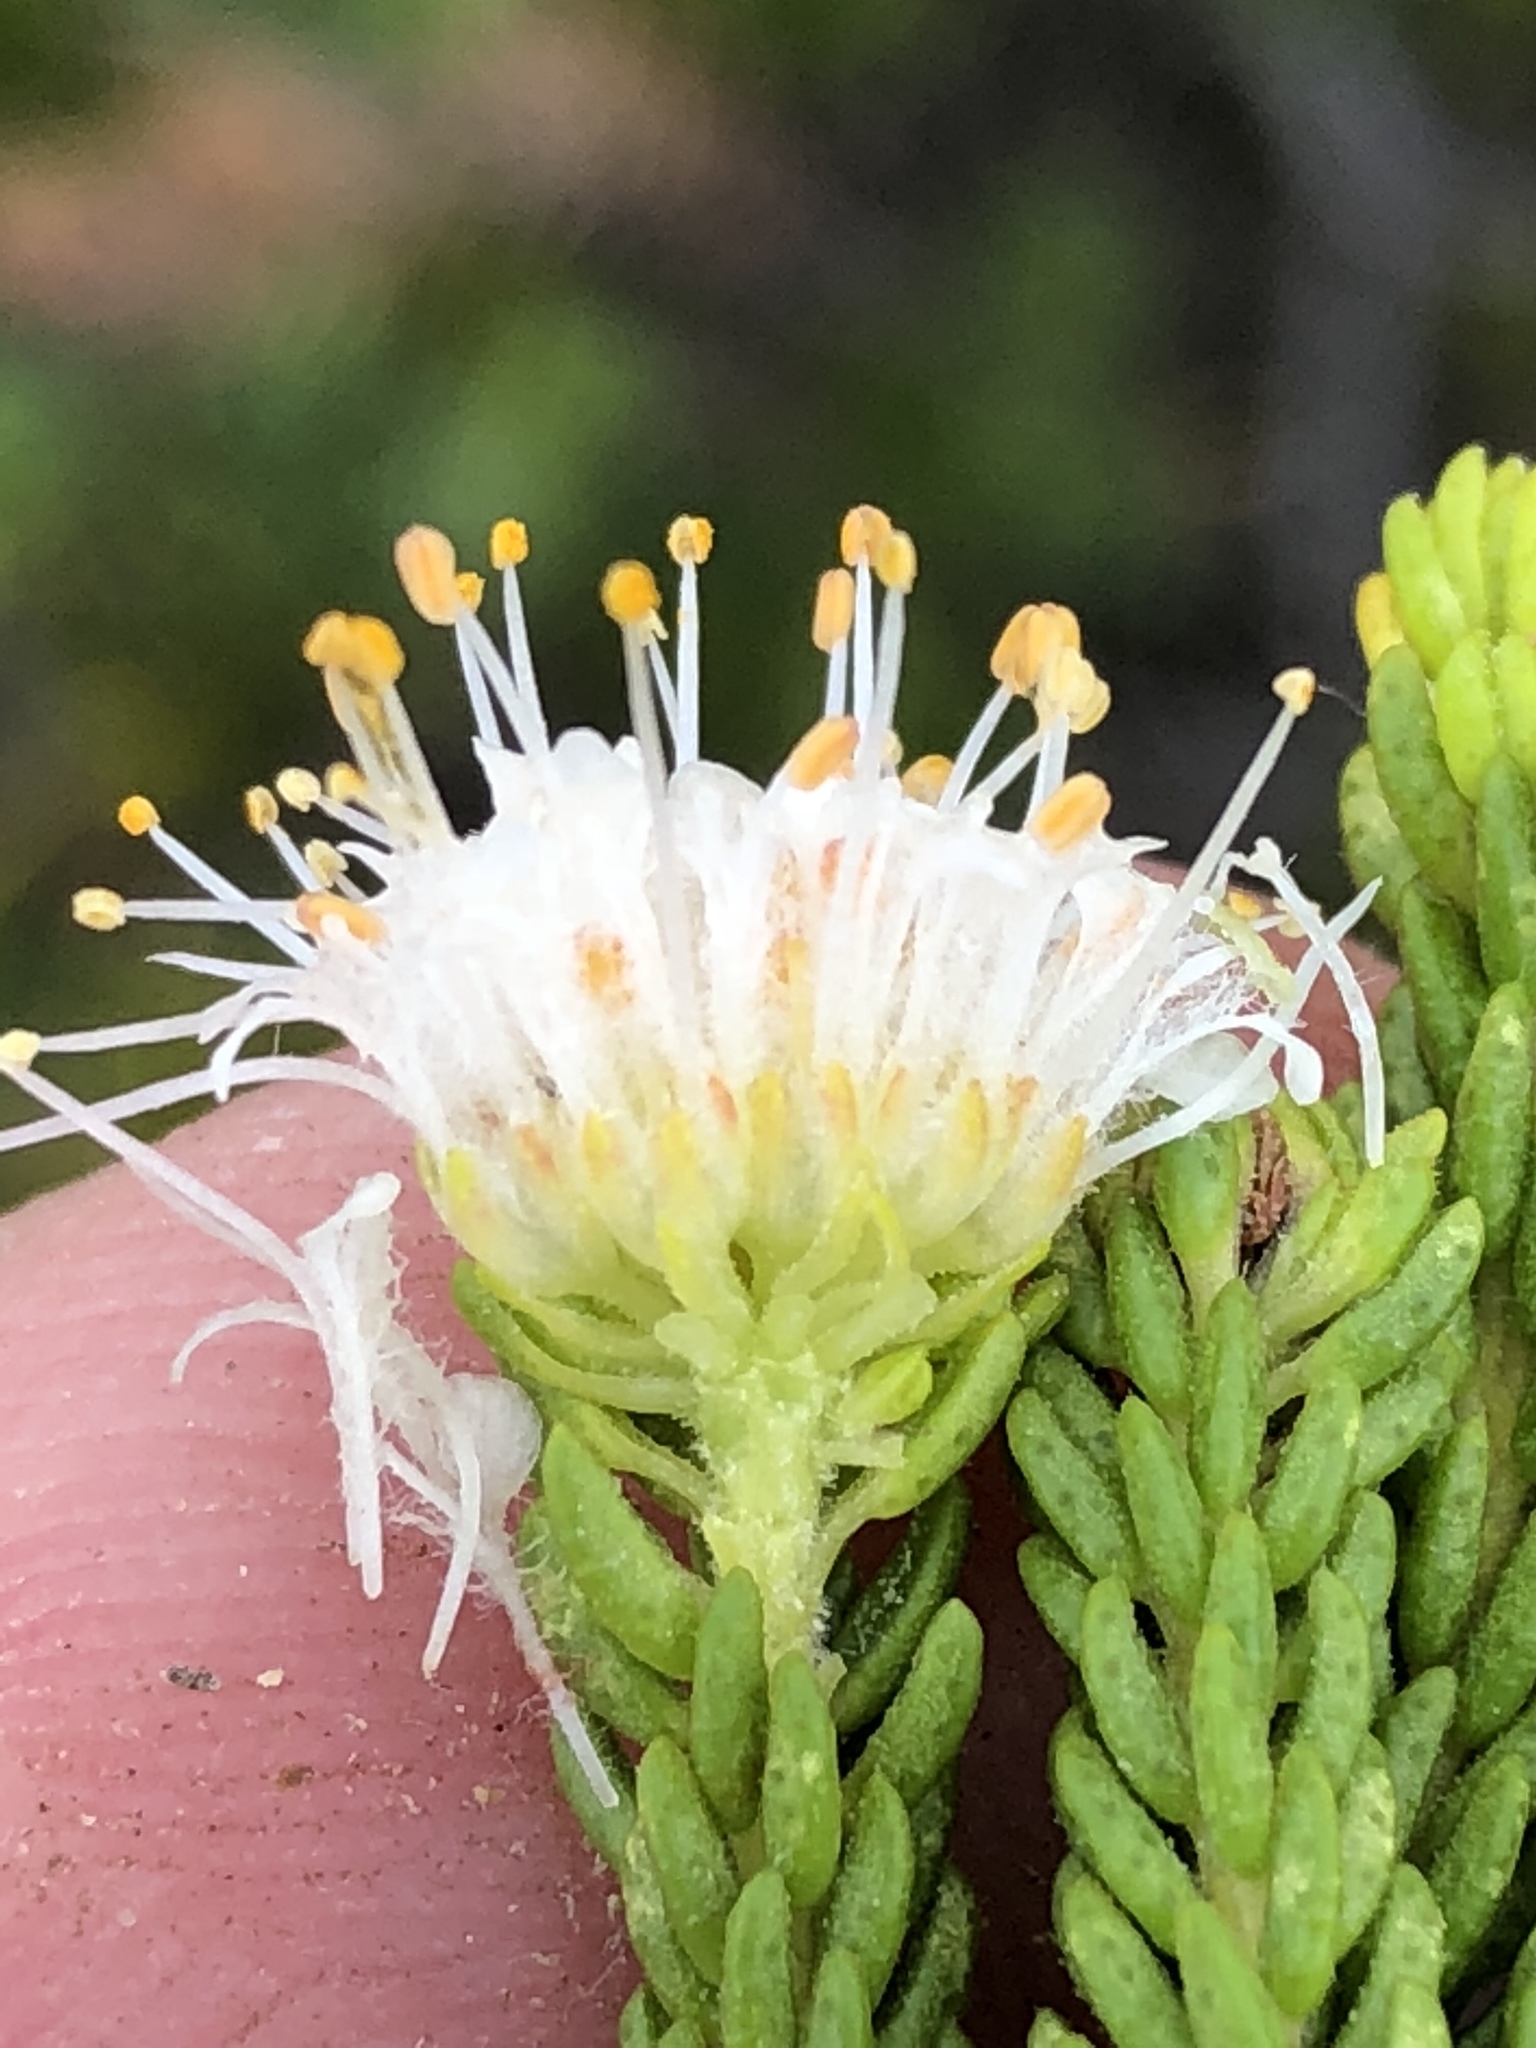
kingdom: Plantae
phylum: Tracheophyta
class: Magnoliopsida
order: Sapindales
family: Rutaceae
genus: Agathosma
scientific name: Agathosma collina
